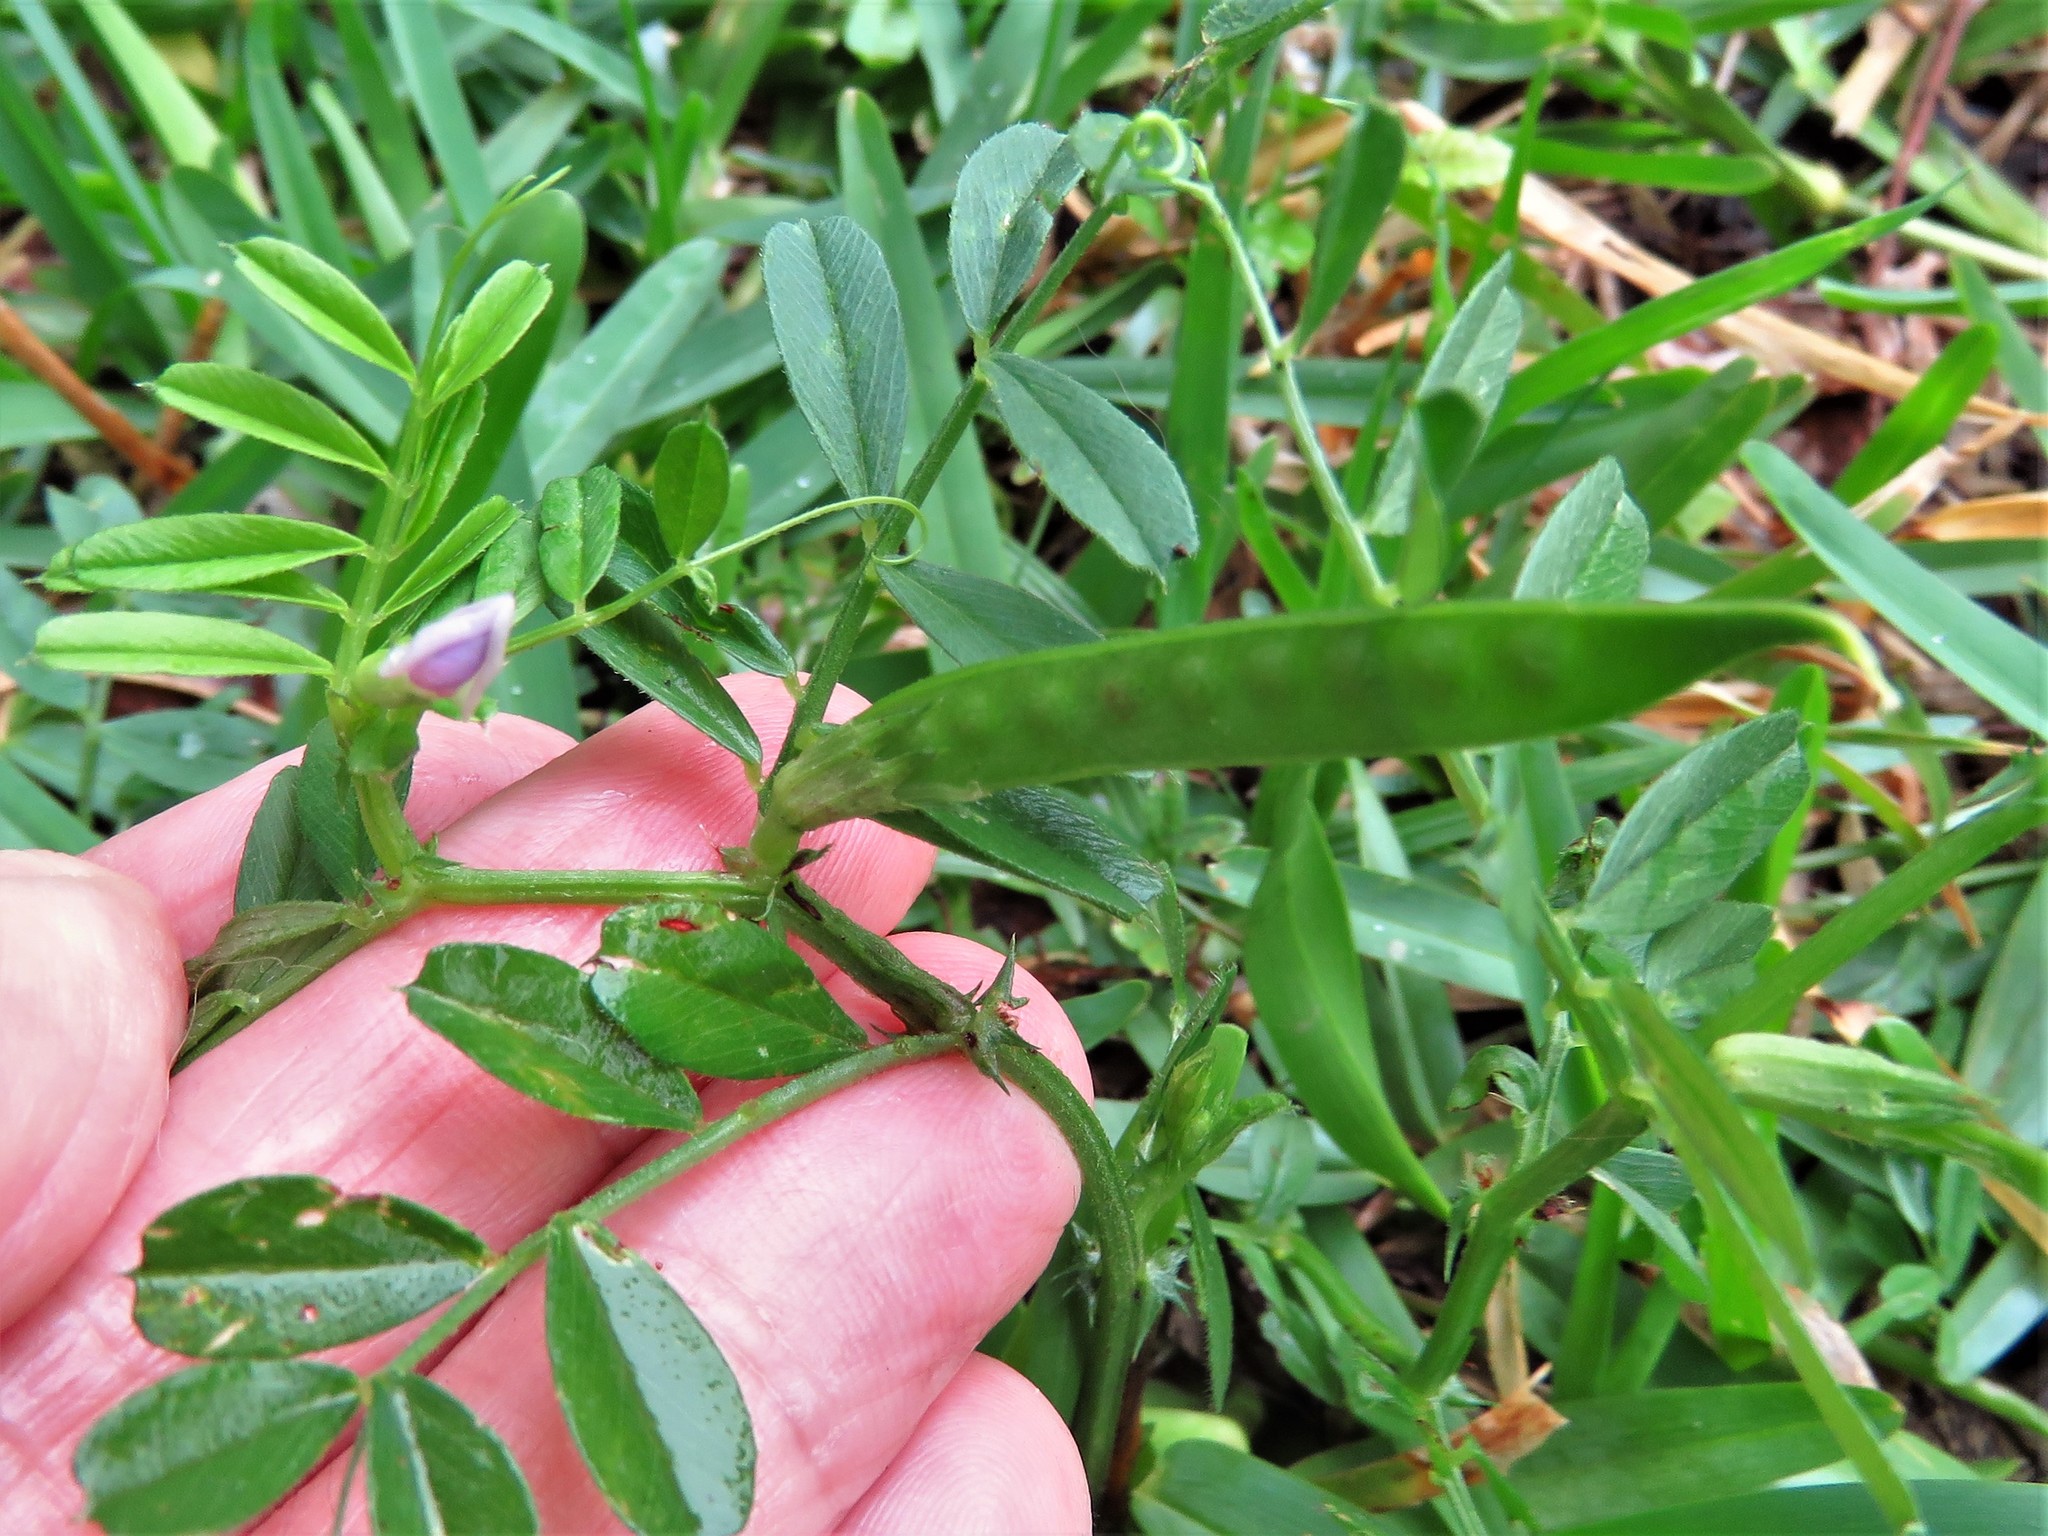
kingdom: Plantae
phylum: Tracheophyta
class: Magnoliopsida
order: Fabales
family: Fabaceae
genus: Vicia
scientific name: Vicia sativa
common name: Garden vetch
